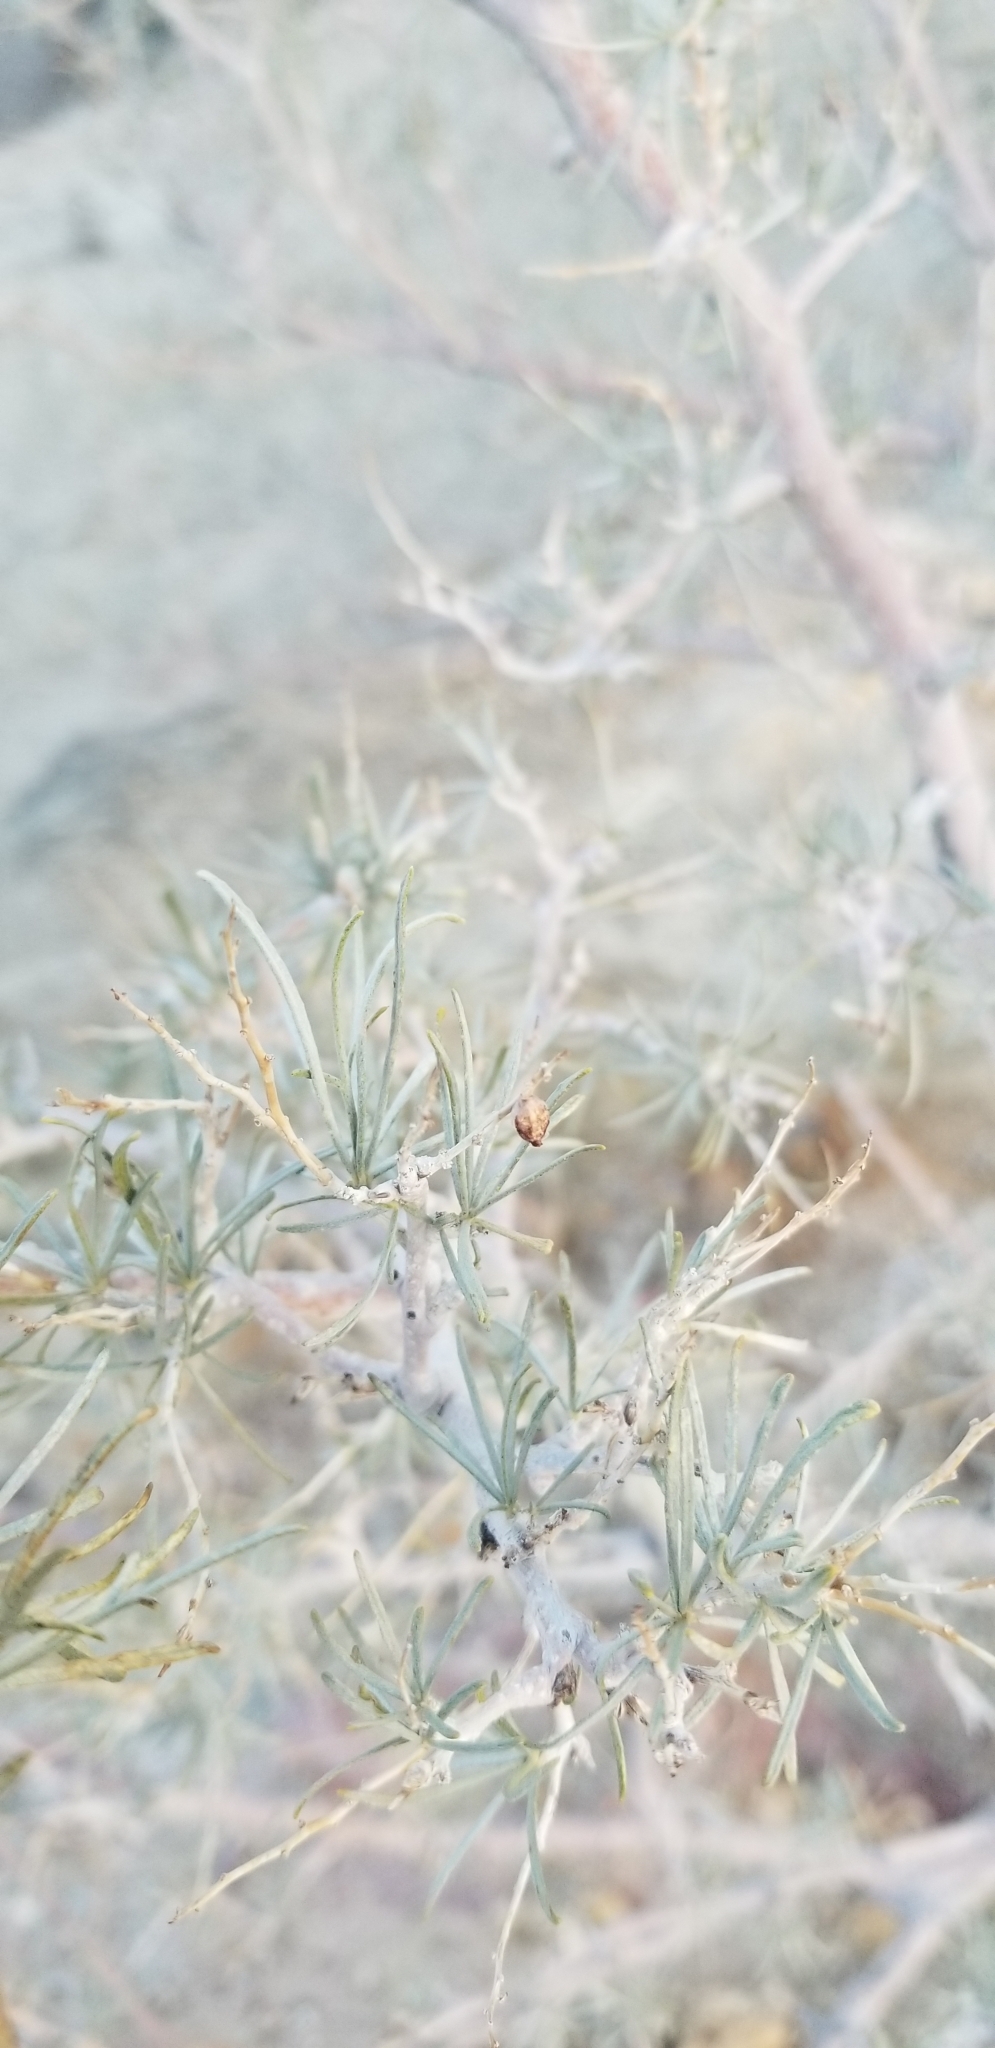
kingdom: Plantae
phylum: Tracheophyta
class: Magnoliopsida
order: Fabales
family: Fabaceae
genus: Psorothamnus
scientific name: Psorothamnus schottii
